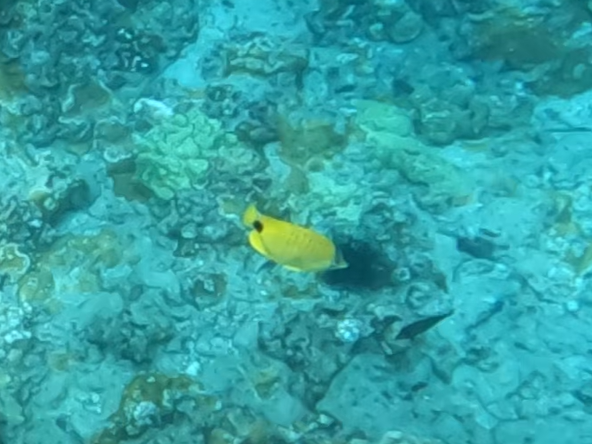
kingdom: Animalia
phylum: Chordata
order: Perciformes
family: Chaetodontidae
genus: Chaetodon
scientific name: Chaetodon miliaris
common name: Lemon butterflyfish
